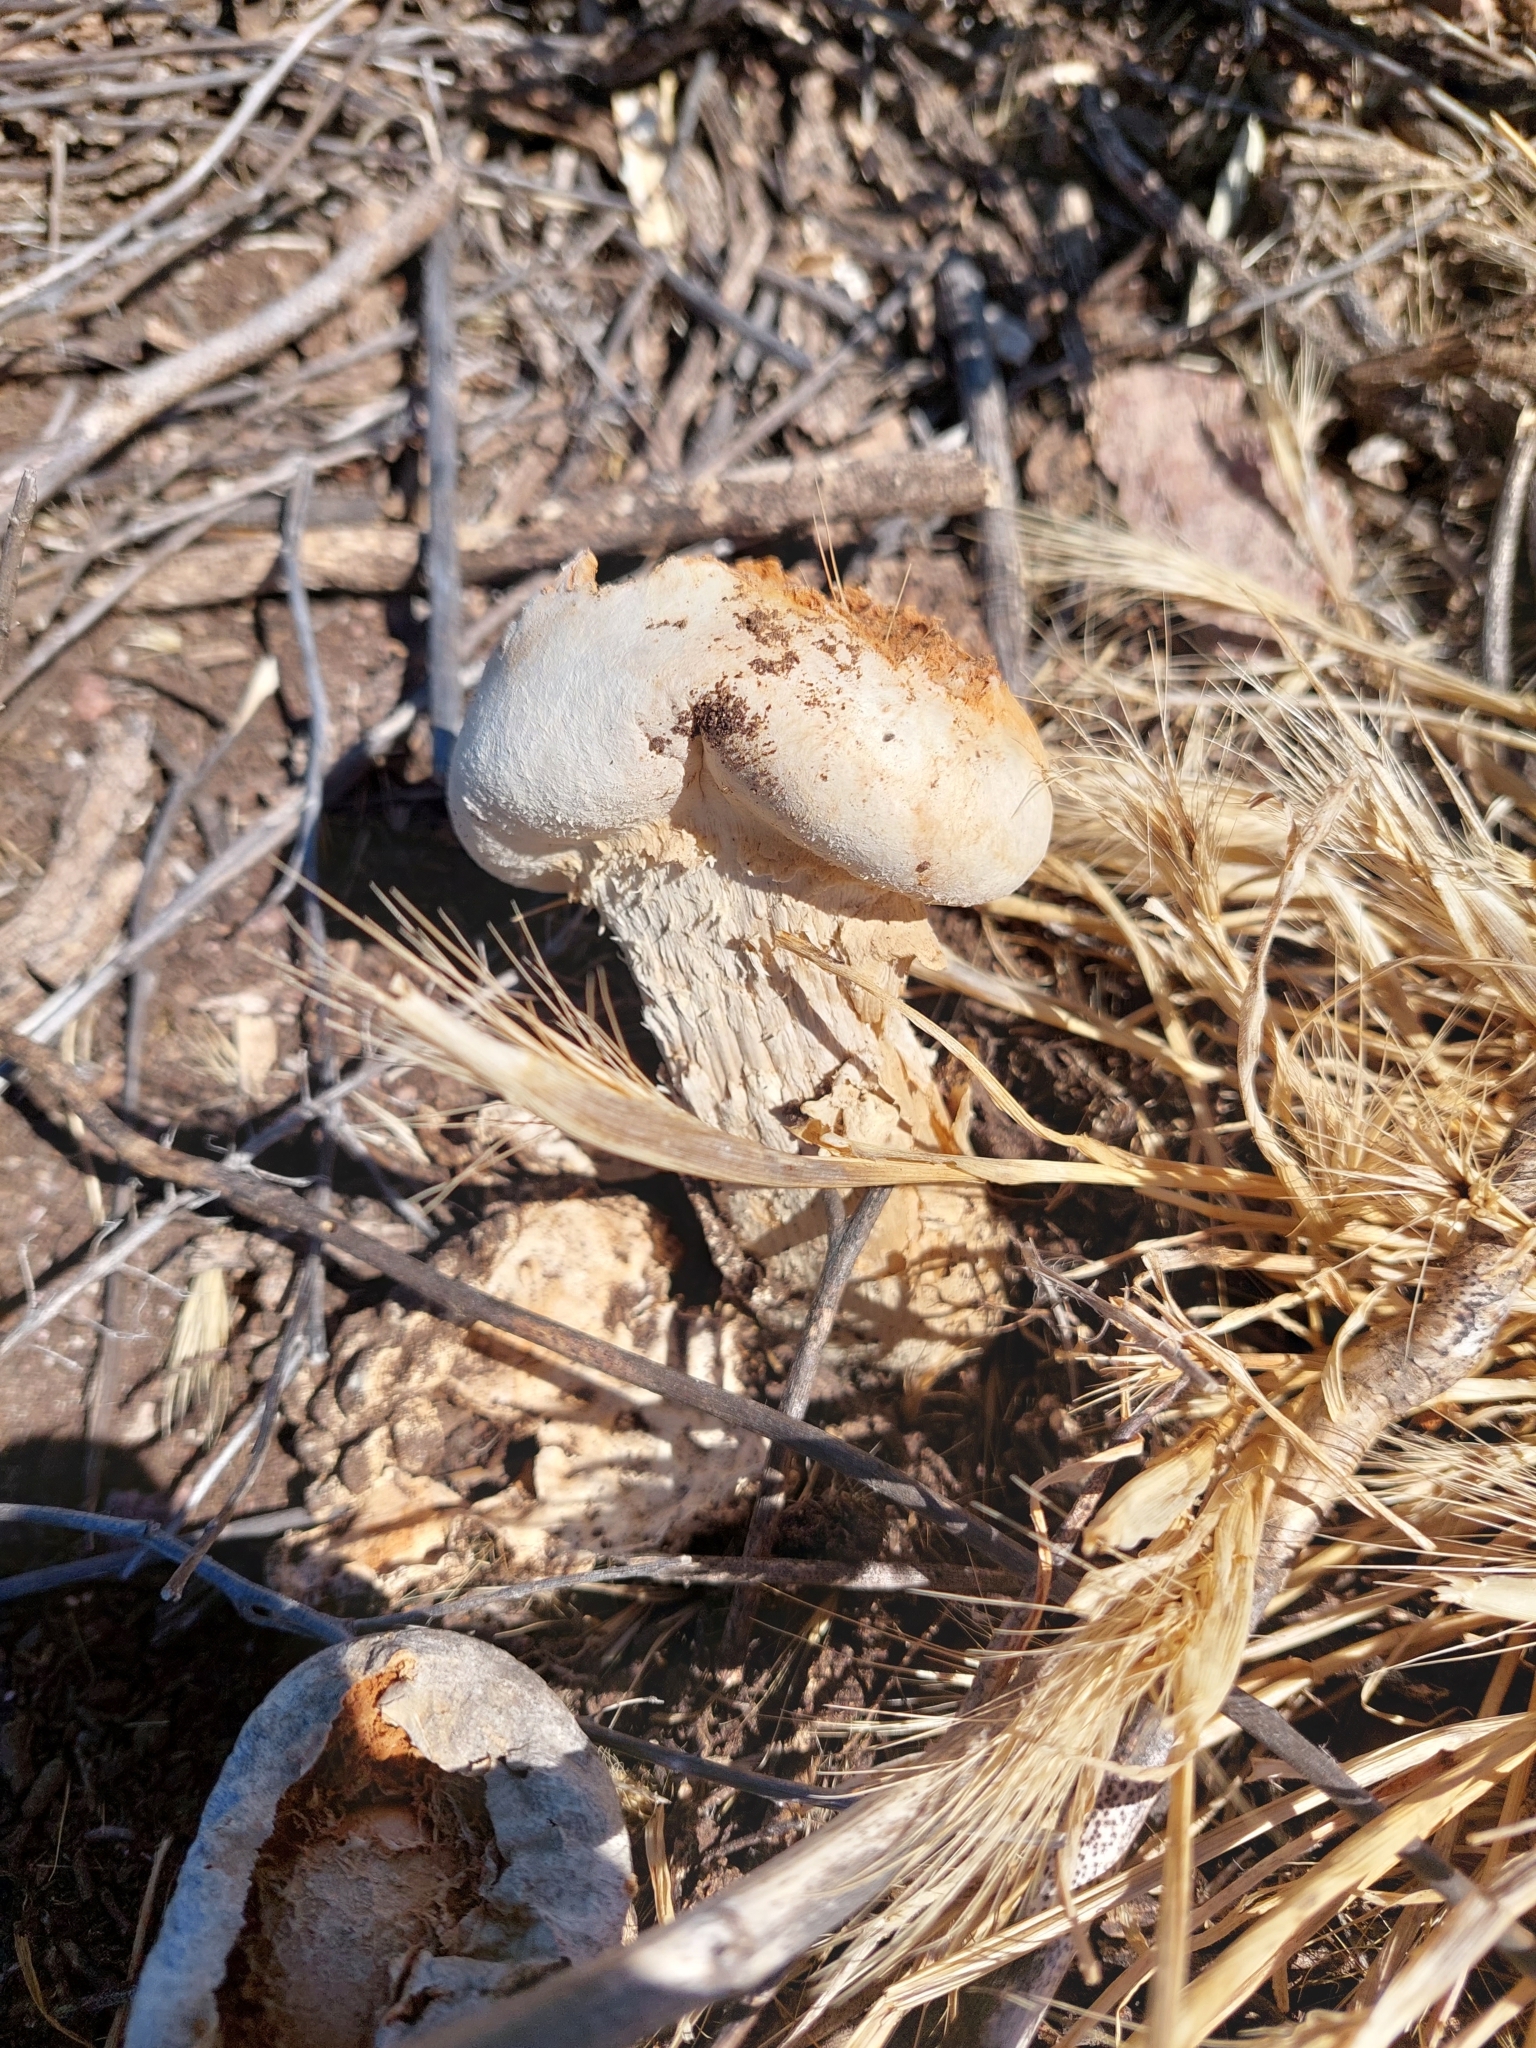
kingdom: Fungi
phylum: Basidiomycota
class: Agaricomycetes
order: Agaricales
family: Agaricaceae
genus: Chlamydopus
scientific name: Chlamydopus meyenianus
